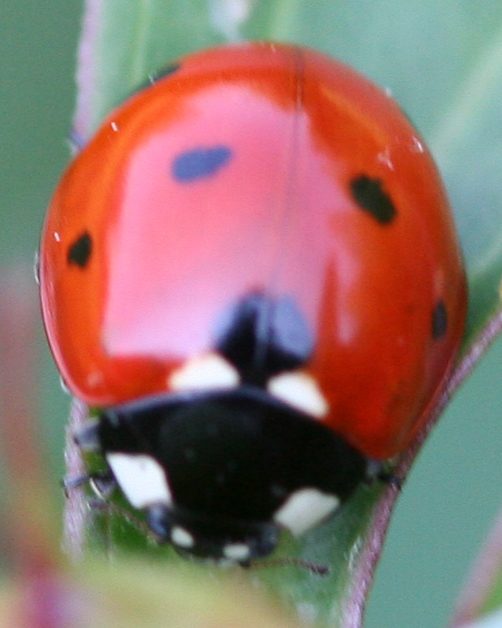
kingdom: Animalia
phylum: Arthropoda
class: Insecta
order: Coleoptera
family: Coccinellidae
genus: Coccinella
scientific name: Coccinella septempunctata
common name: Sevenspotted lady beetle
